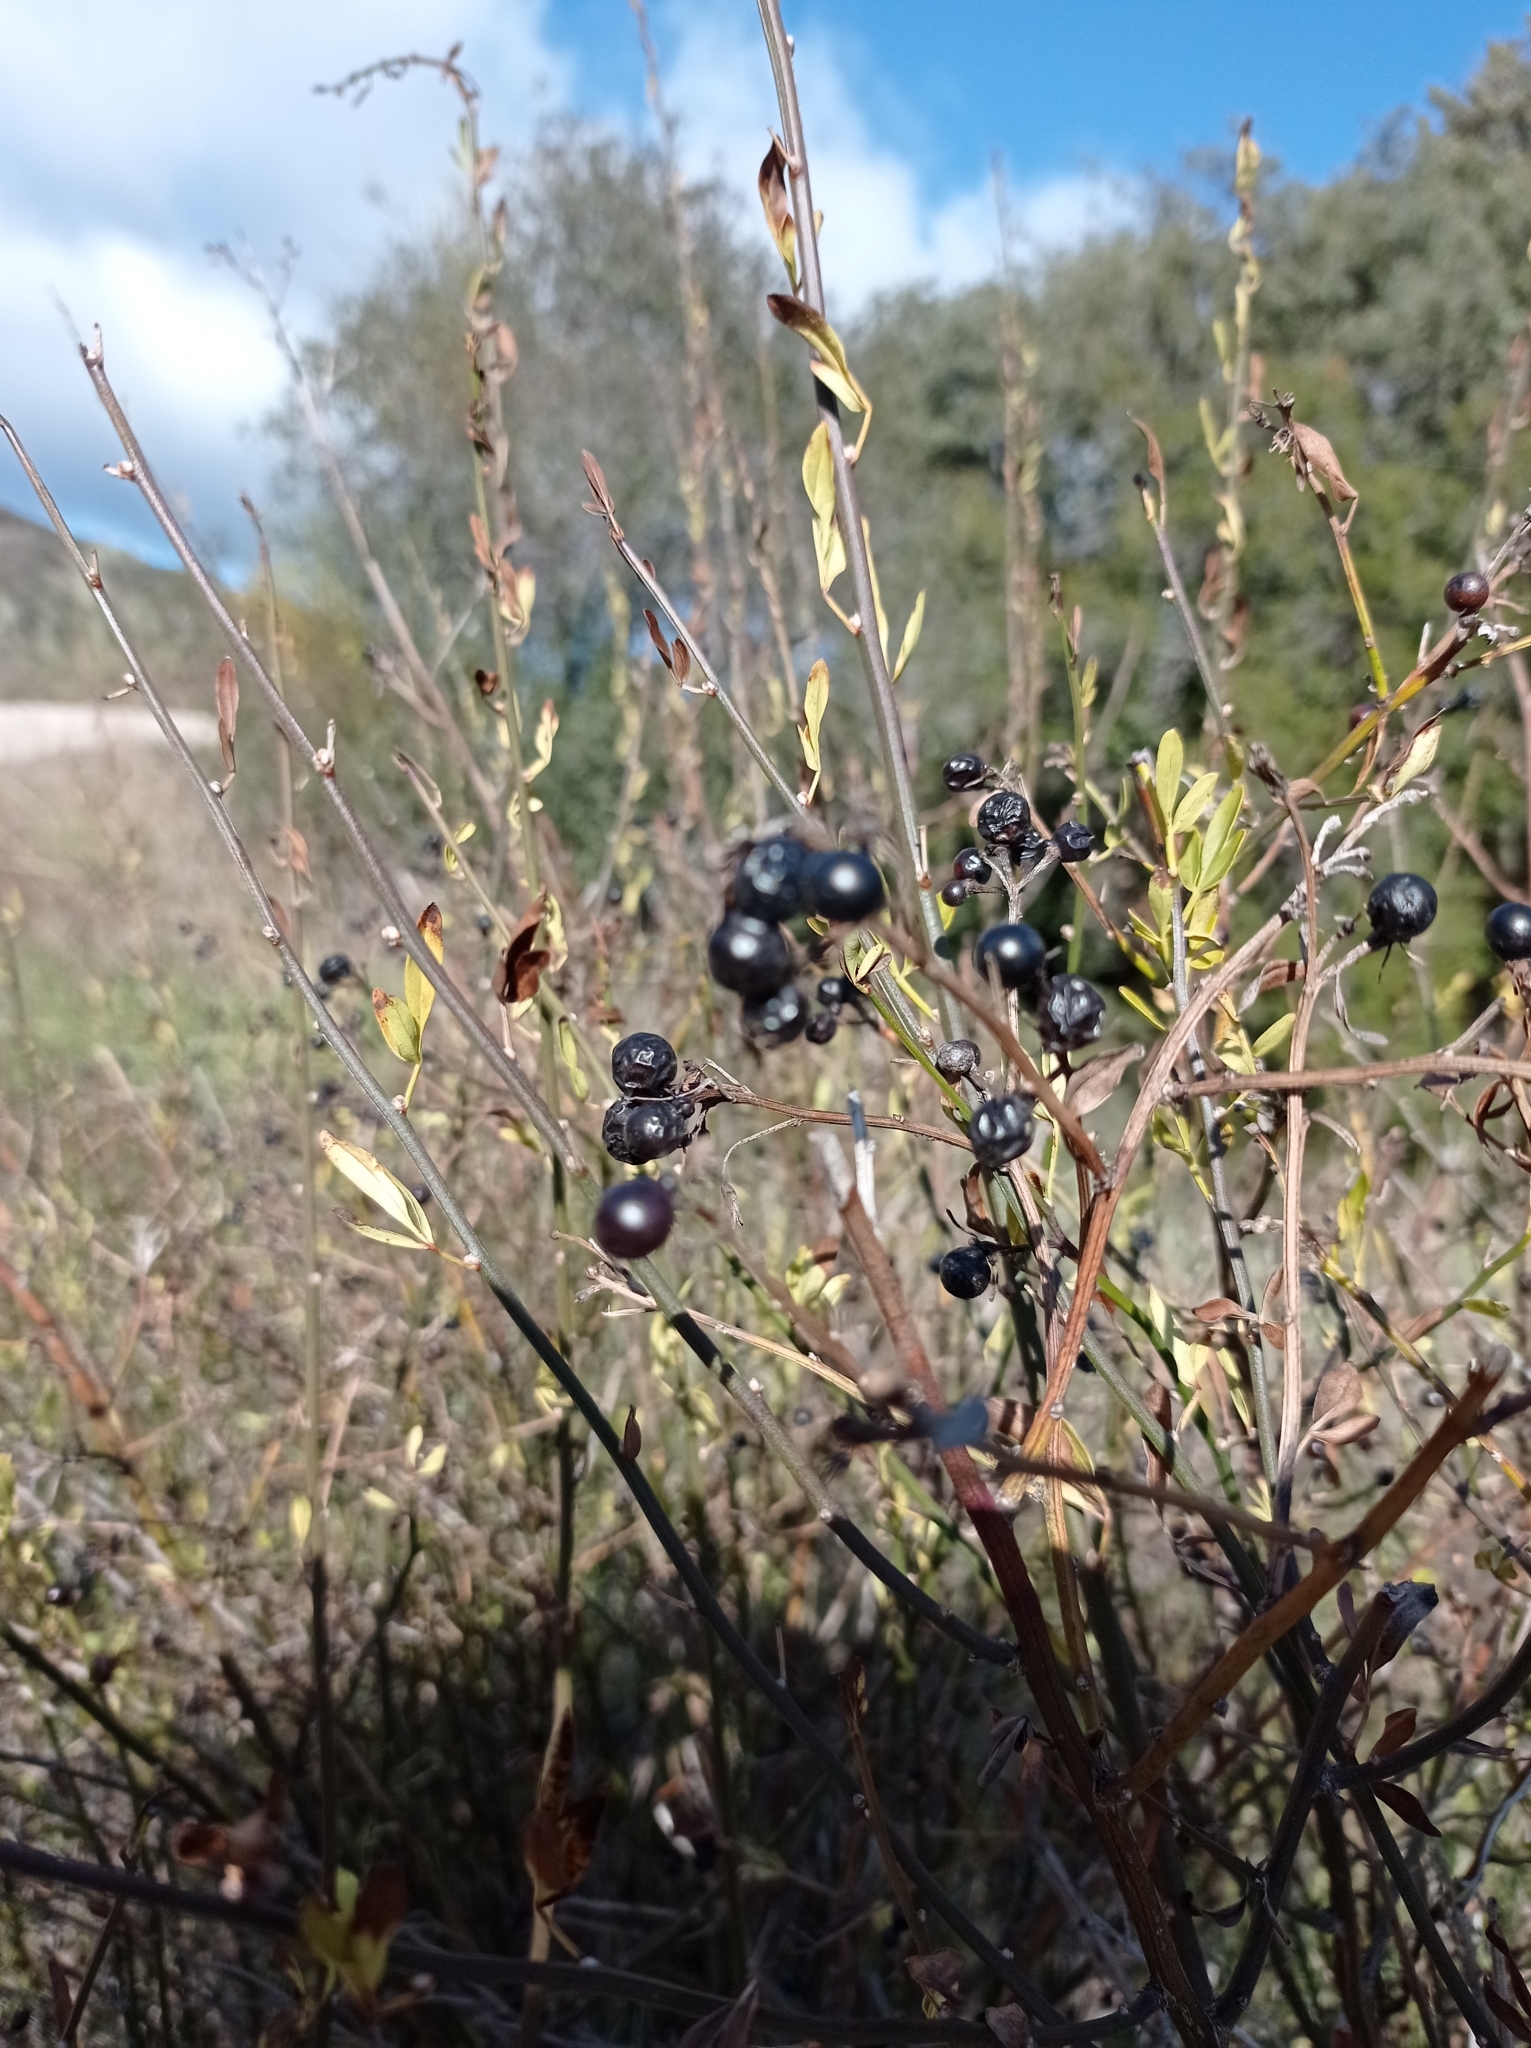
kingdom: Plantae
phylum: Tracheophyta
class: Magnoliopsida
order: Lamiales
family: Oleaceae
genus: Chrysojasminum
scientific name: Chrysojasminum fruticans
